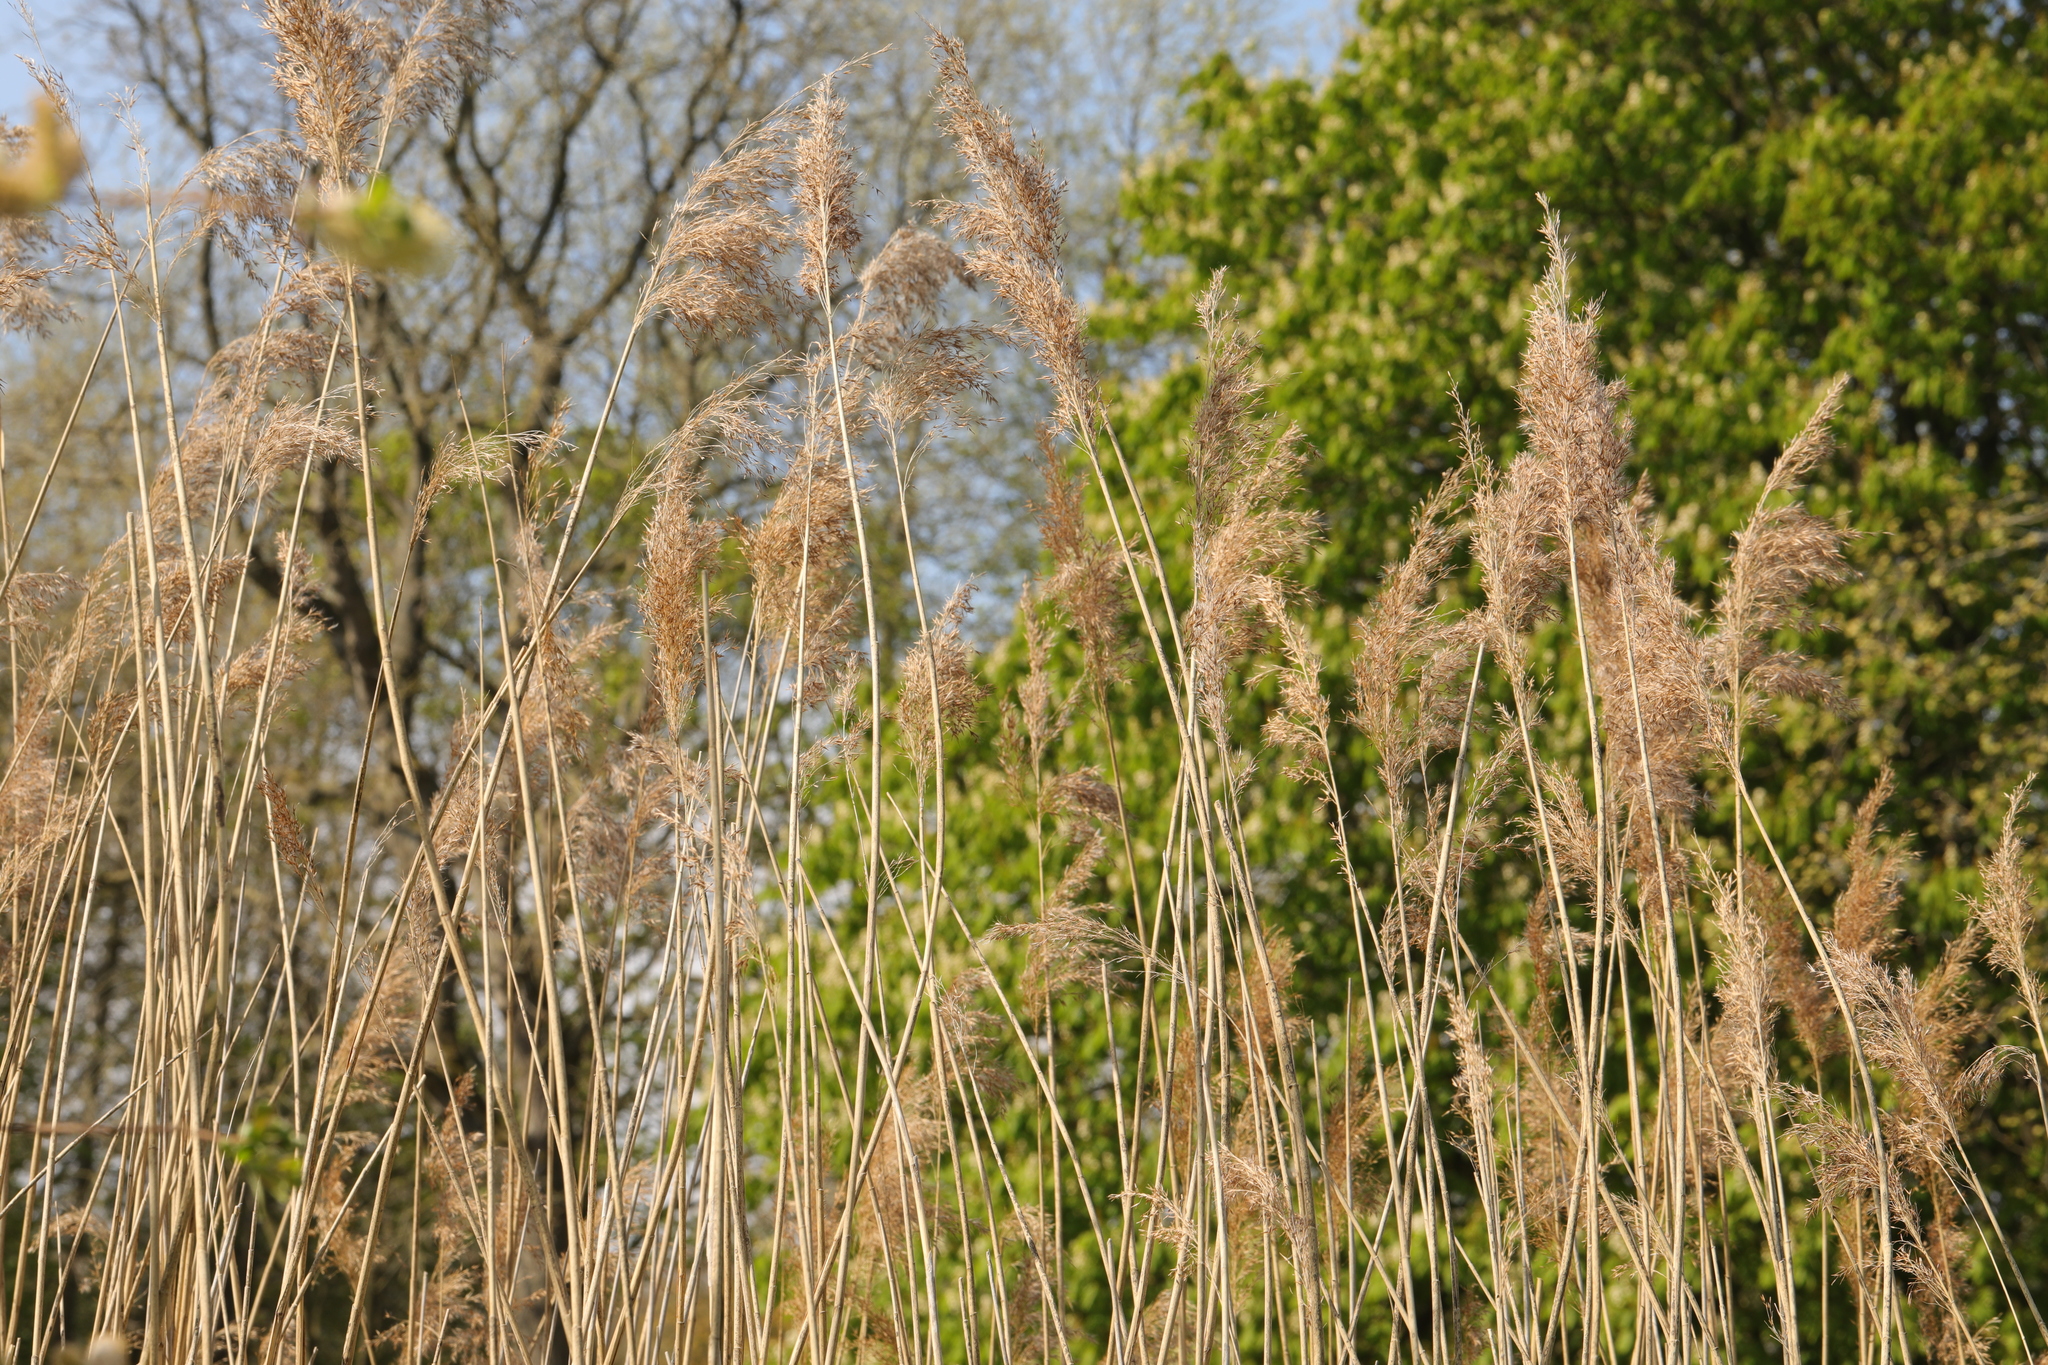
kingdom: Plantae
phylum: Tracheophyta
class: Liliopsida
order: Poales
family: Poaceae
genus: Phragmites
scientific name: Phragmites australis
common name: Common reed
